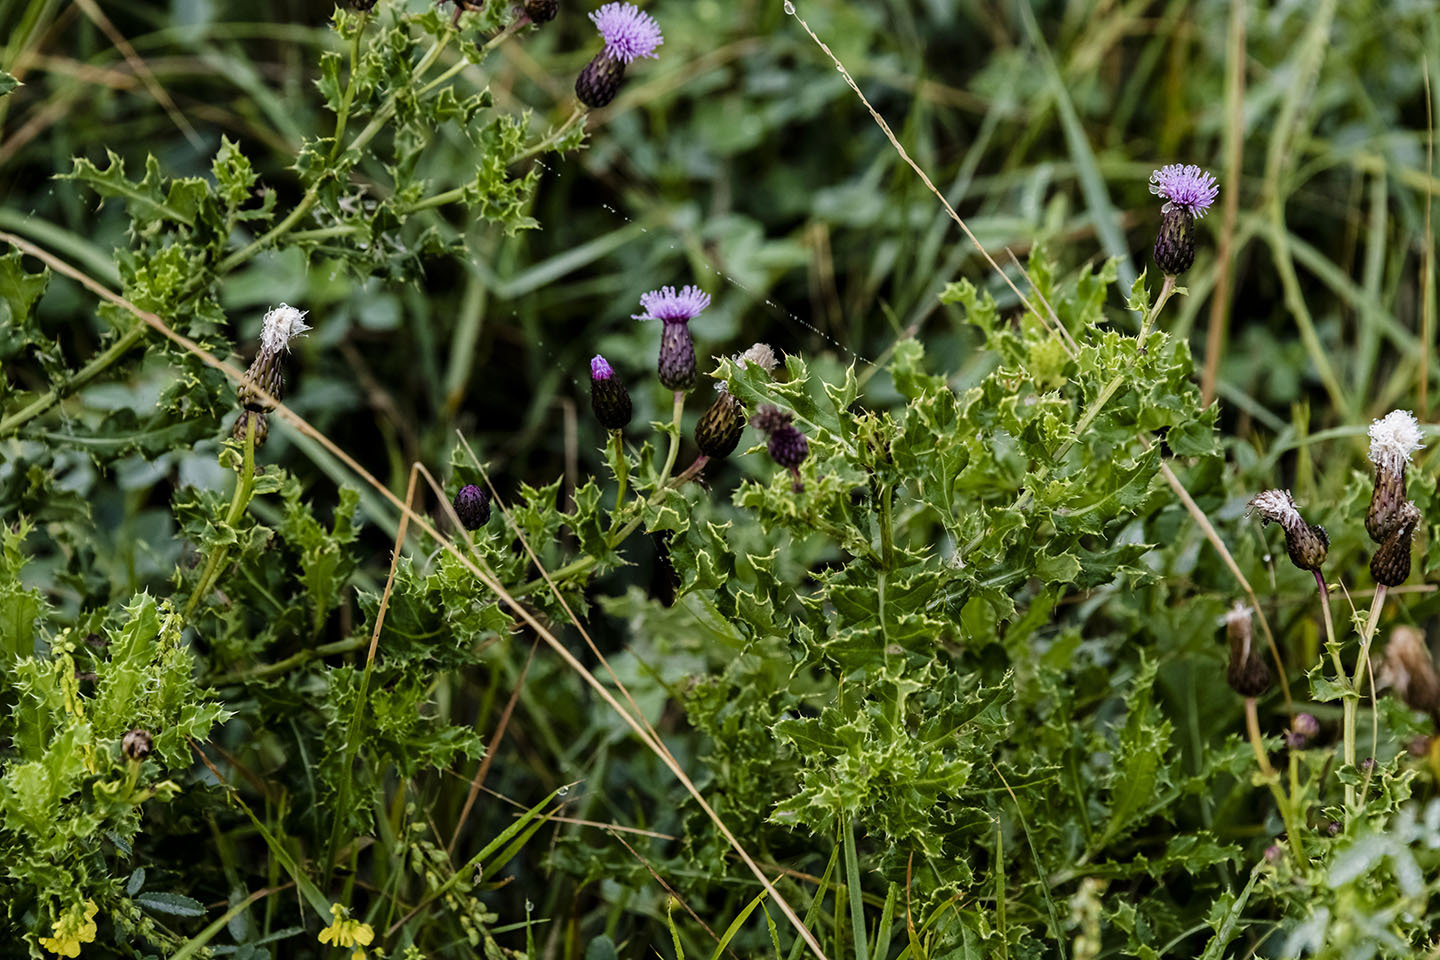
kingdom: Plantae
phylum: Tracheophyta
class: Magnoliopsida
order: Asterales
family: Asteraceae
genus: Cirsium
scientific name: Cirsium arvense
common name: Creeping thistle
